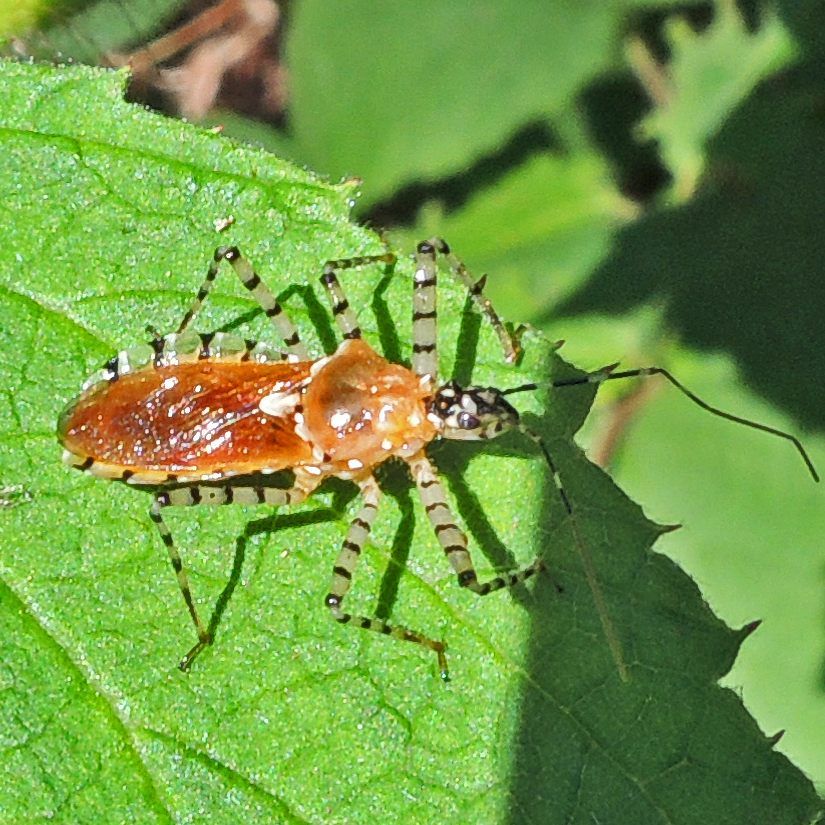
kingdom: Animalia
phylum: Arthropoda
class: Insecta
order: Hemiptera
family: Reduviidae
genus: Pselliopus
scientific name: Pselliopus cinctus
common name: Ringed assassin bug
